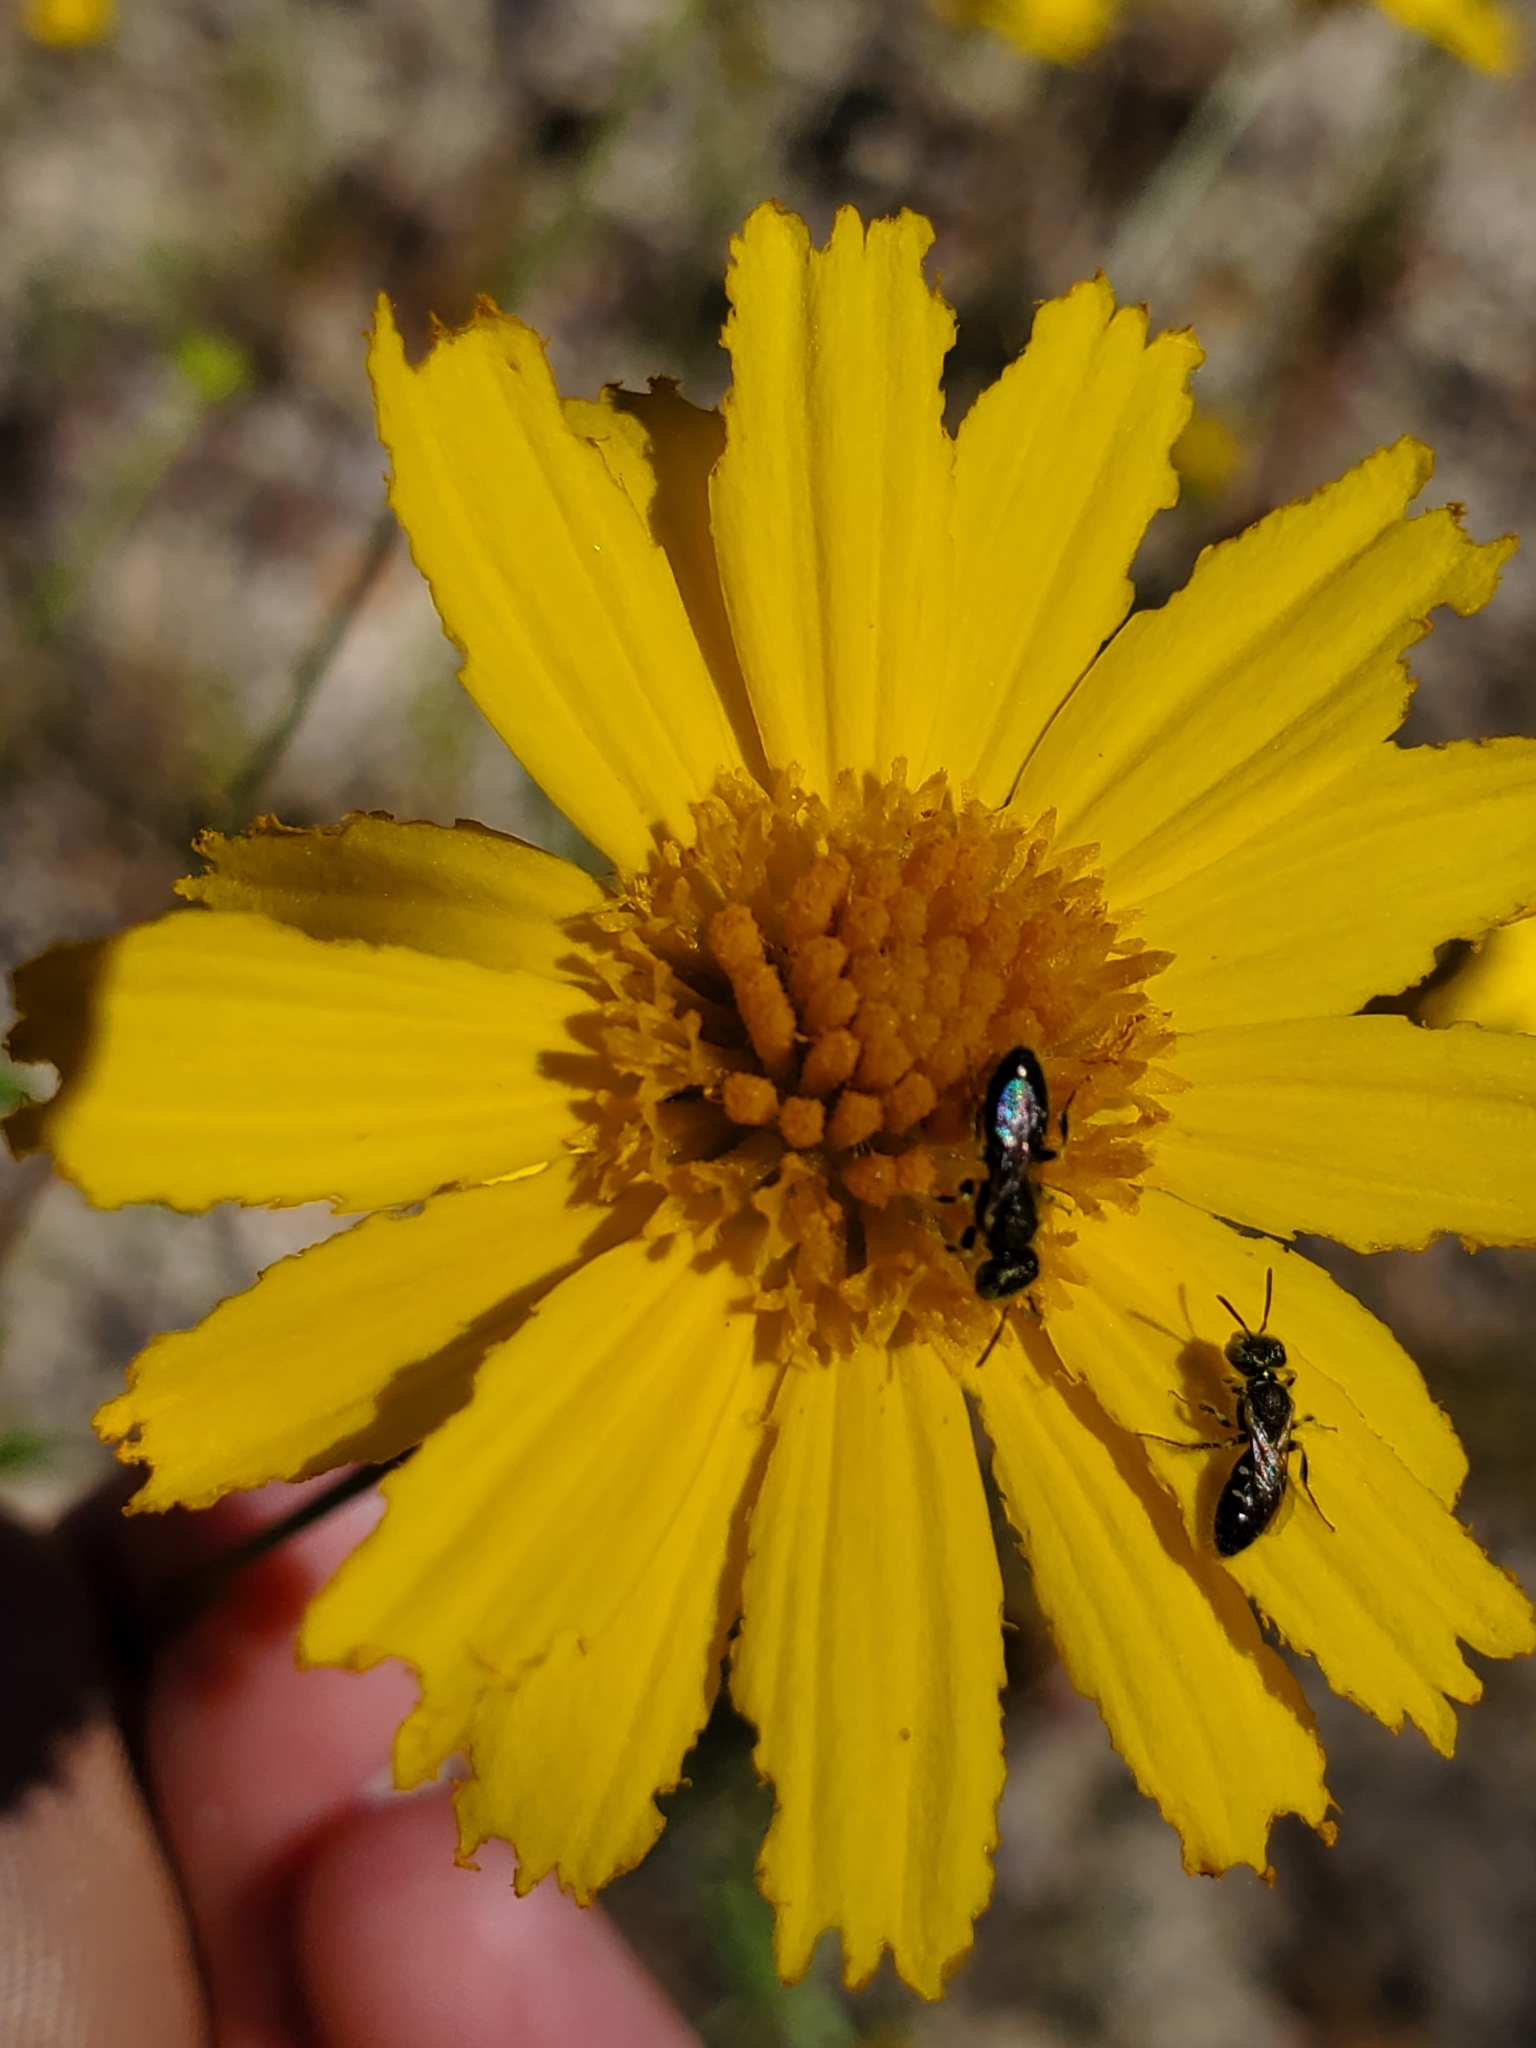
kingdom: Plantae
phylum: Tracheophyta
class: Magnoliopsida
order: Asterales
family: Asteraceae
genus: Balduina
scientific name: Balduina angustifolia
